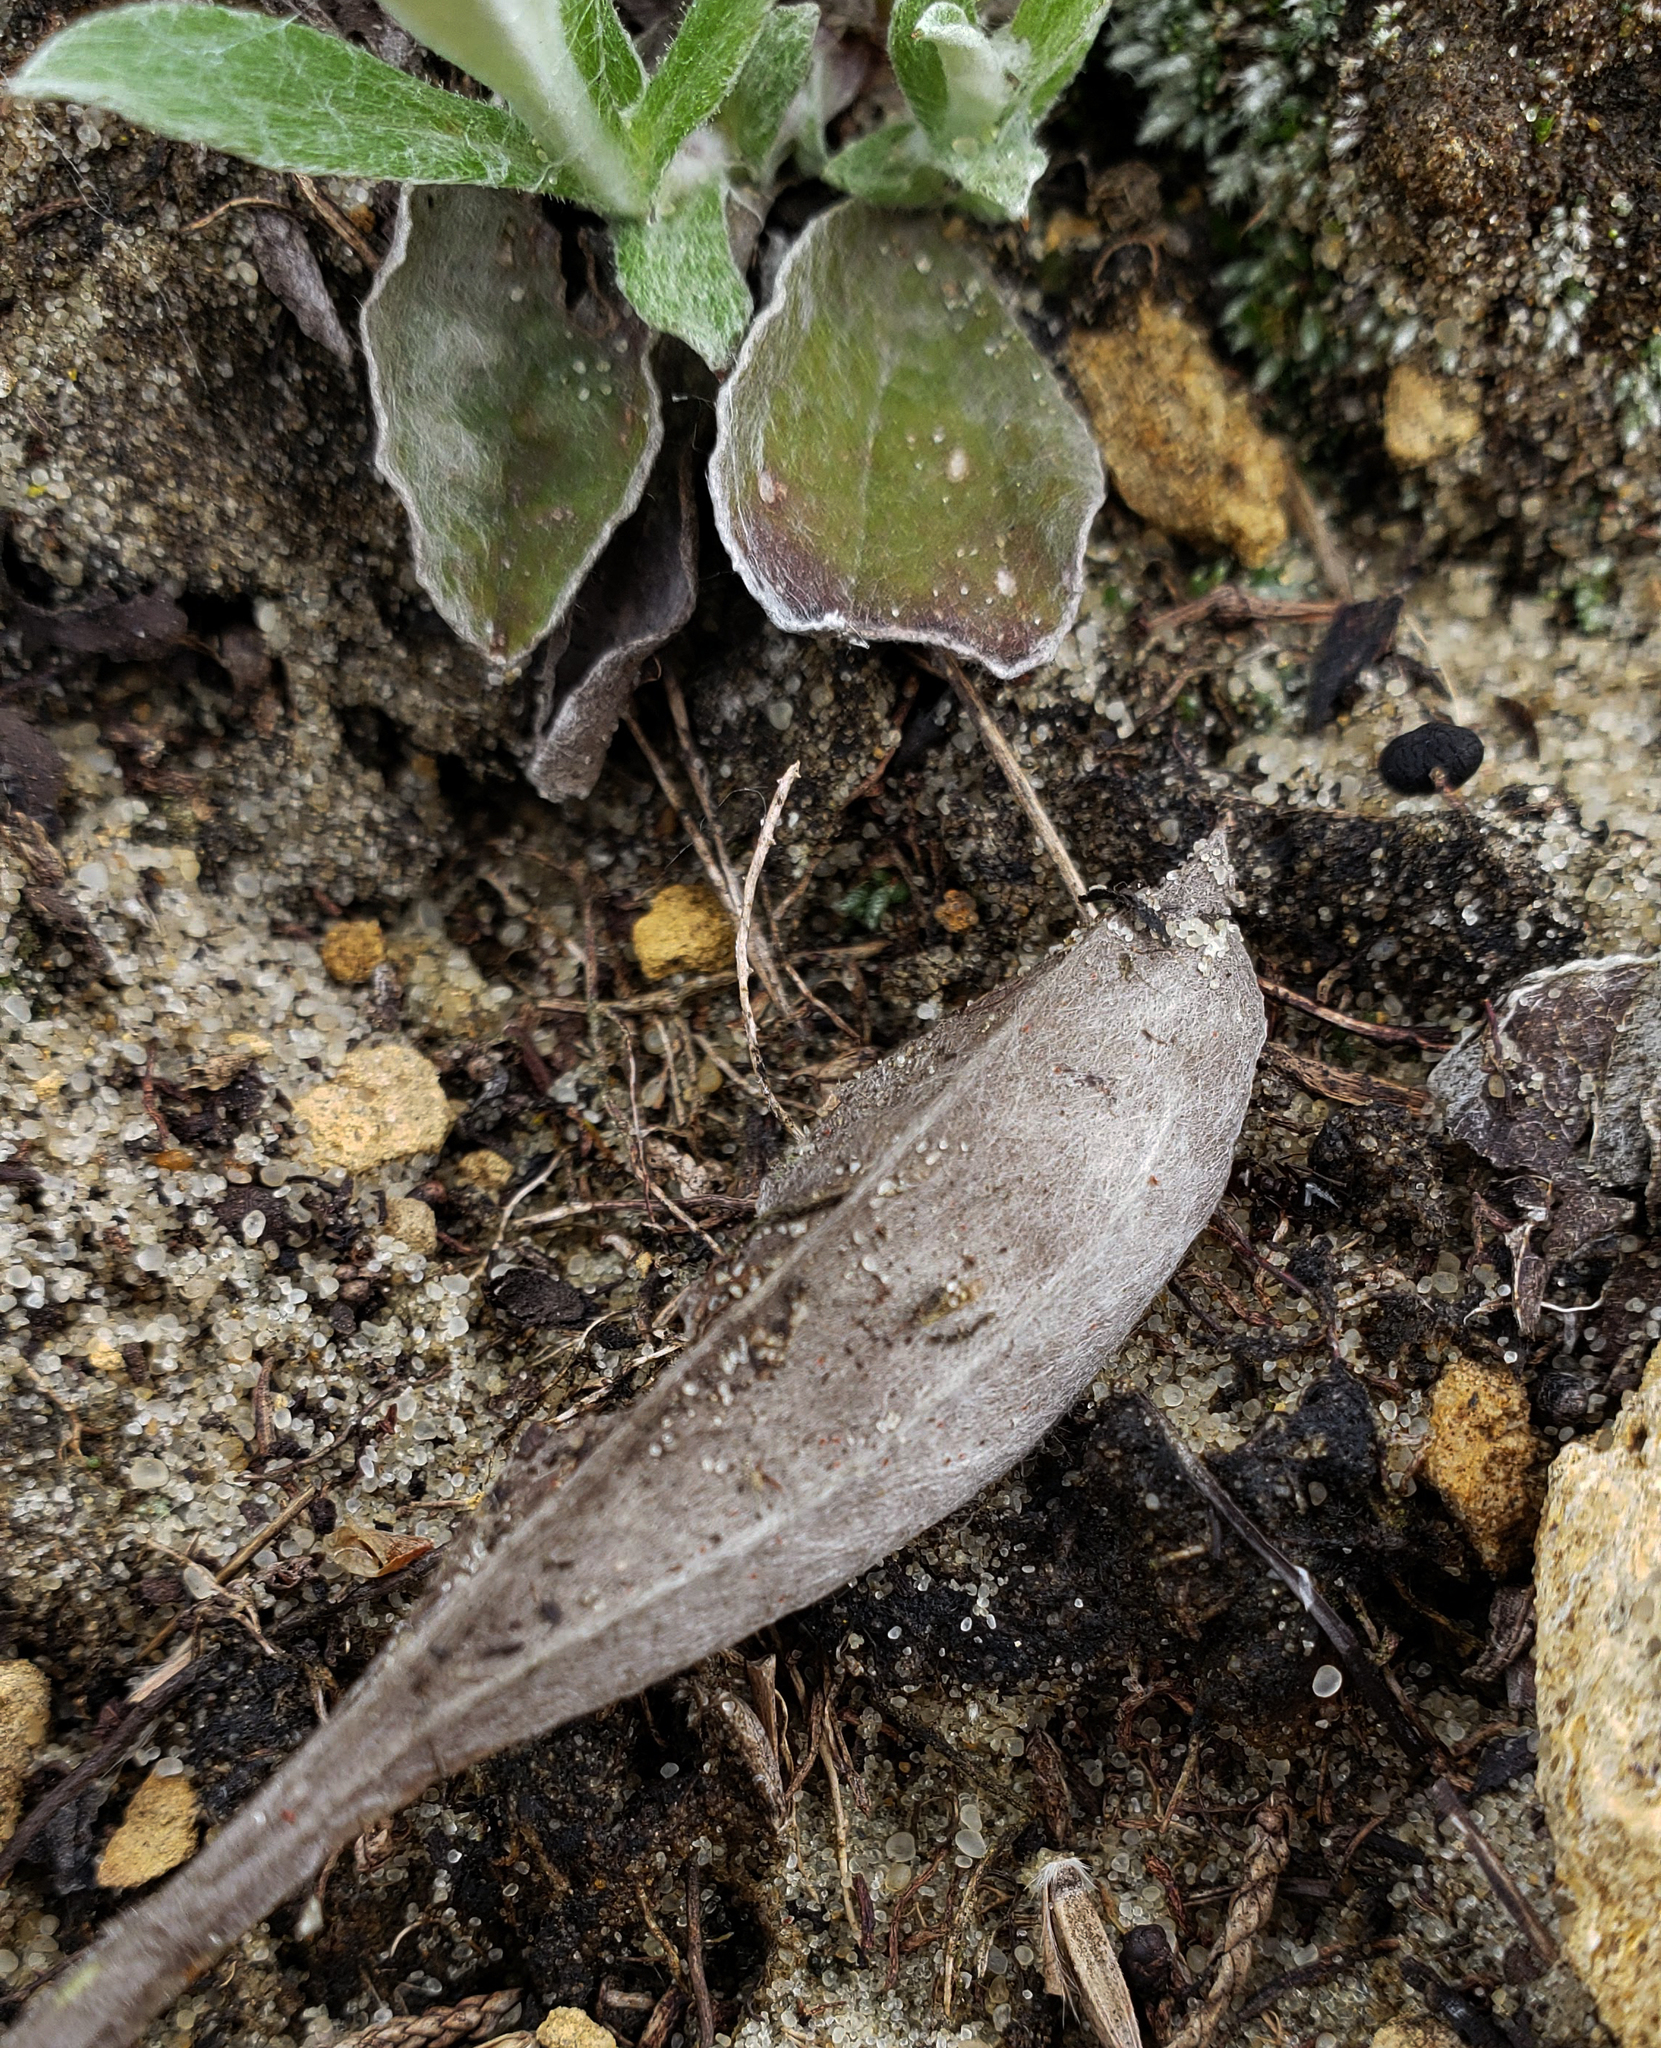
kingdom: Plantae
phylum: Tracheophyta
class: Magnoliopsida
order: Asterales
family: Asteraceae
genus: Antennaria
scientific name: Antennaria parlinii
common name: Parlin's pussytoes
